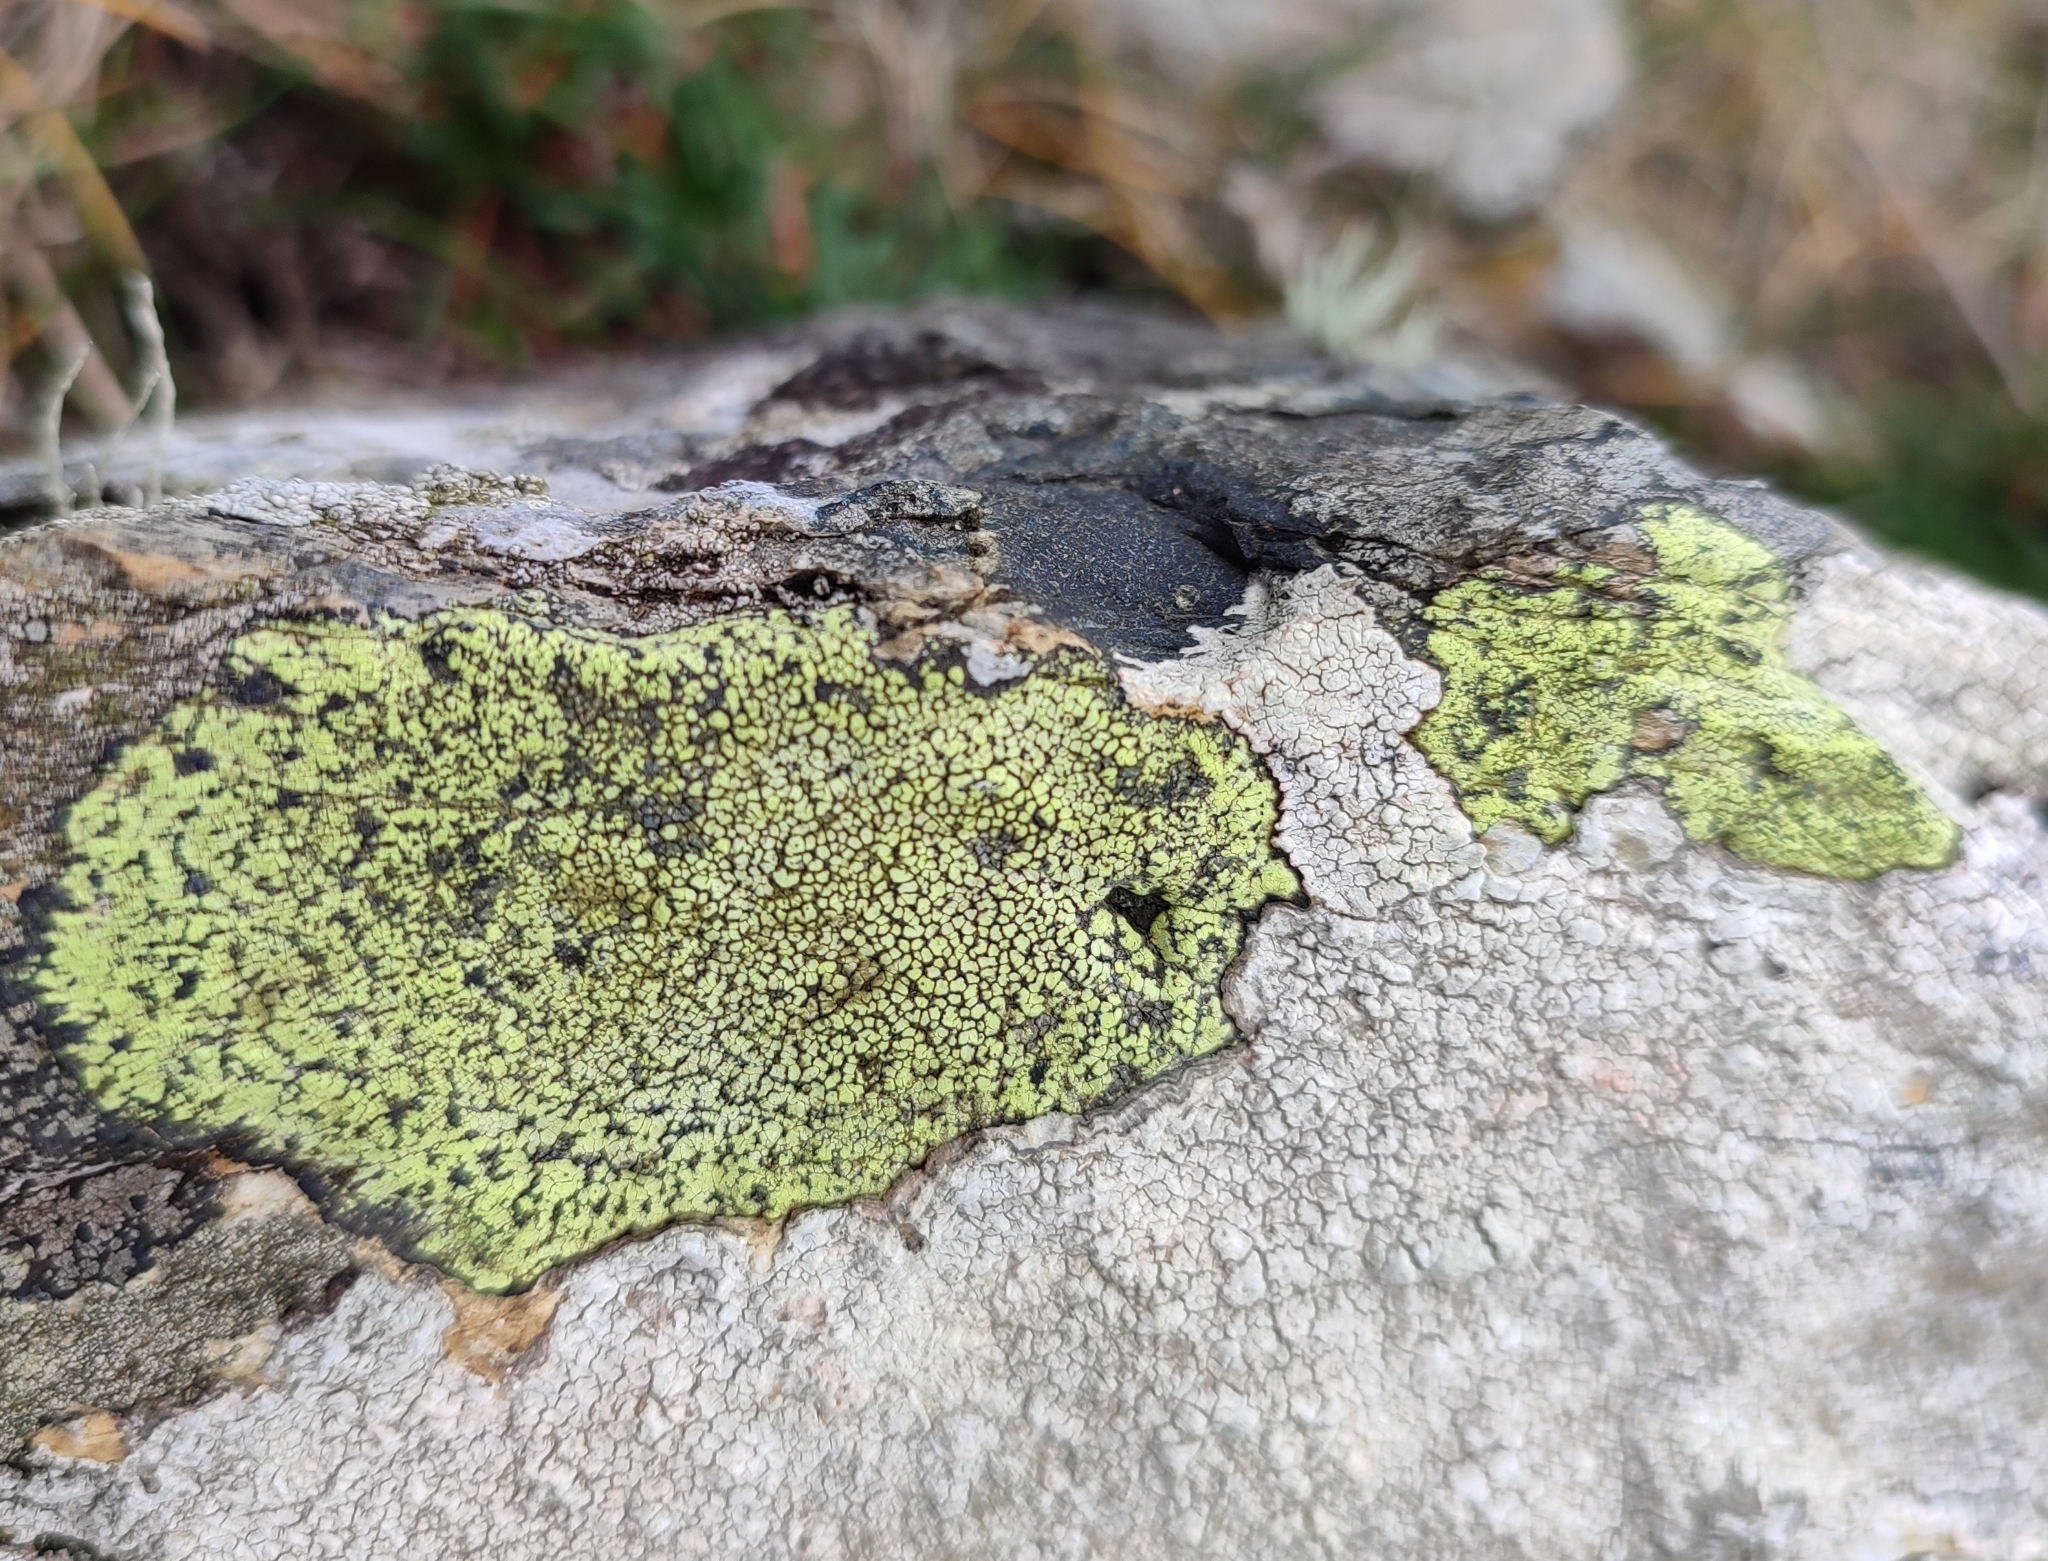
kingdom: Fungi
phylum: Ascomycota
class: Lecanoromycetes
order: Rhizocarpales
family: Rhizocarpaceae
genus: Rhizocarpon
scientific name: Rhizocarpon geographicum
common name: Yellow map lichen
